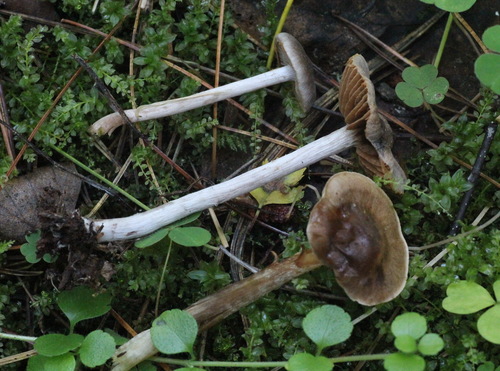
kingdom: Fungi
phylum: Basidiomycota
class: Agaricomycetes
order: Agaricales
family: Cortinariaceae
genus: Cortinarius
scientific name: Cortinarius casimirii
